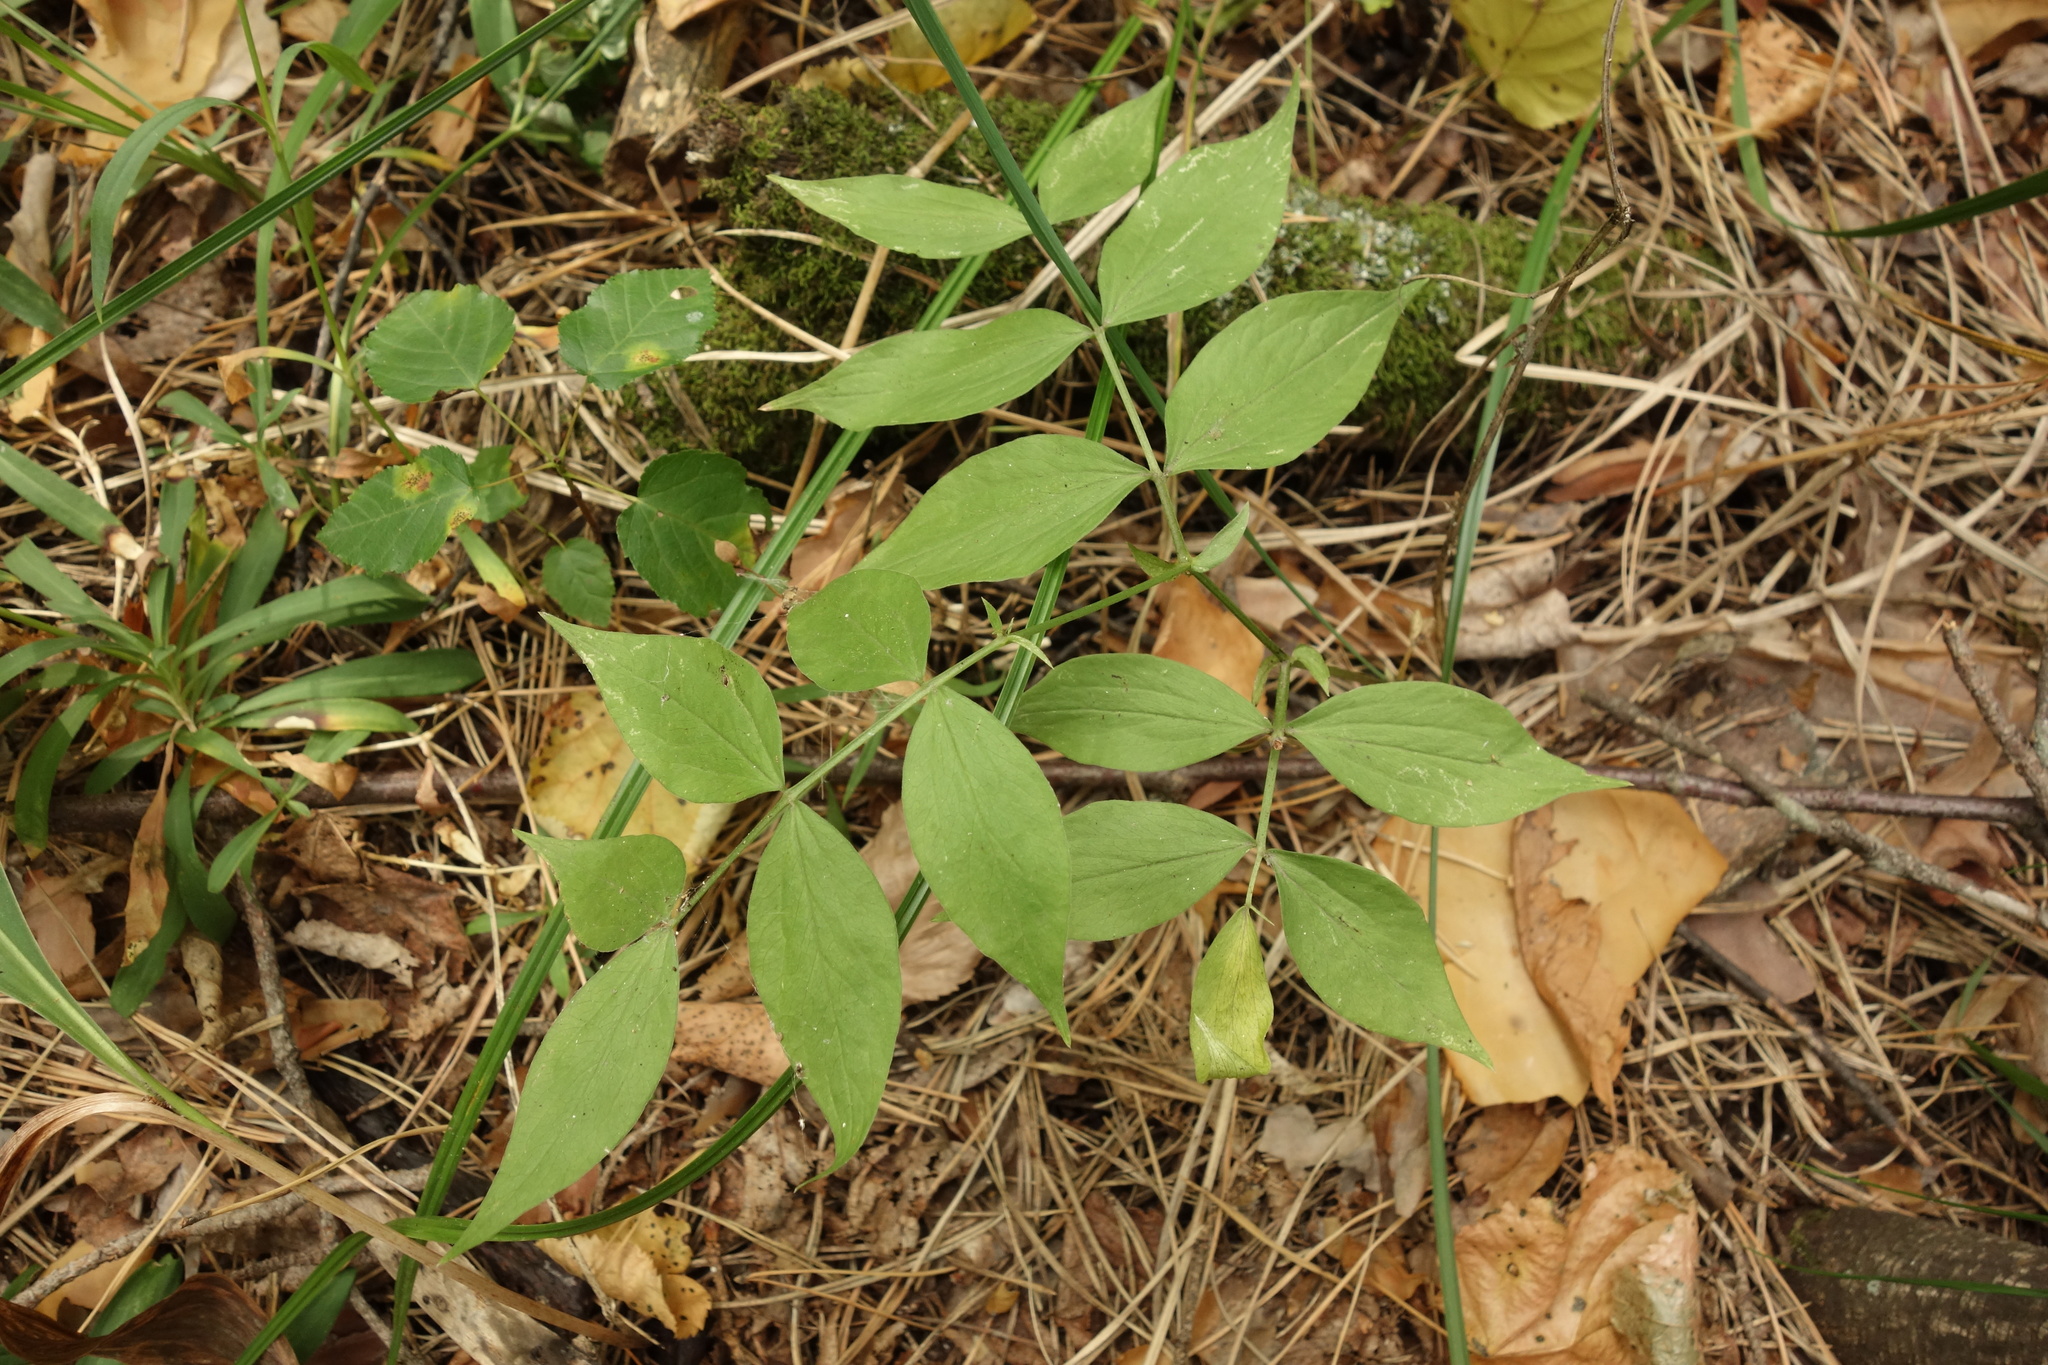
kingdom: Plantae
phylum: Tracheophyta
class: Magnoliopsida
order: Fabales
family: Fabaceae
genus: Lathyrus
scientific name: Lathyrus vernus
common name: Spring pea
